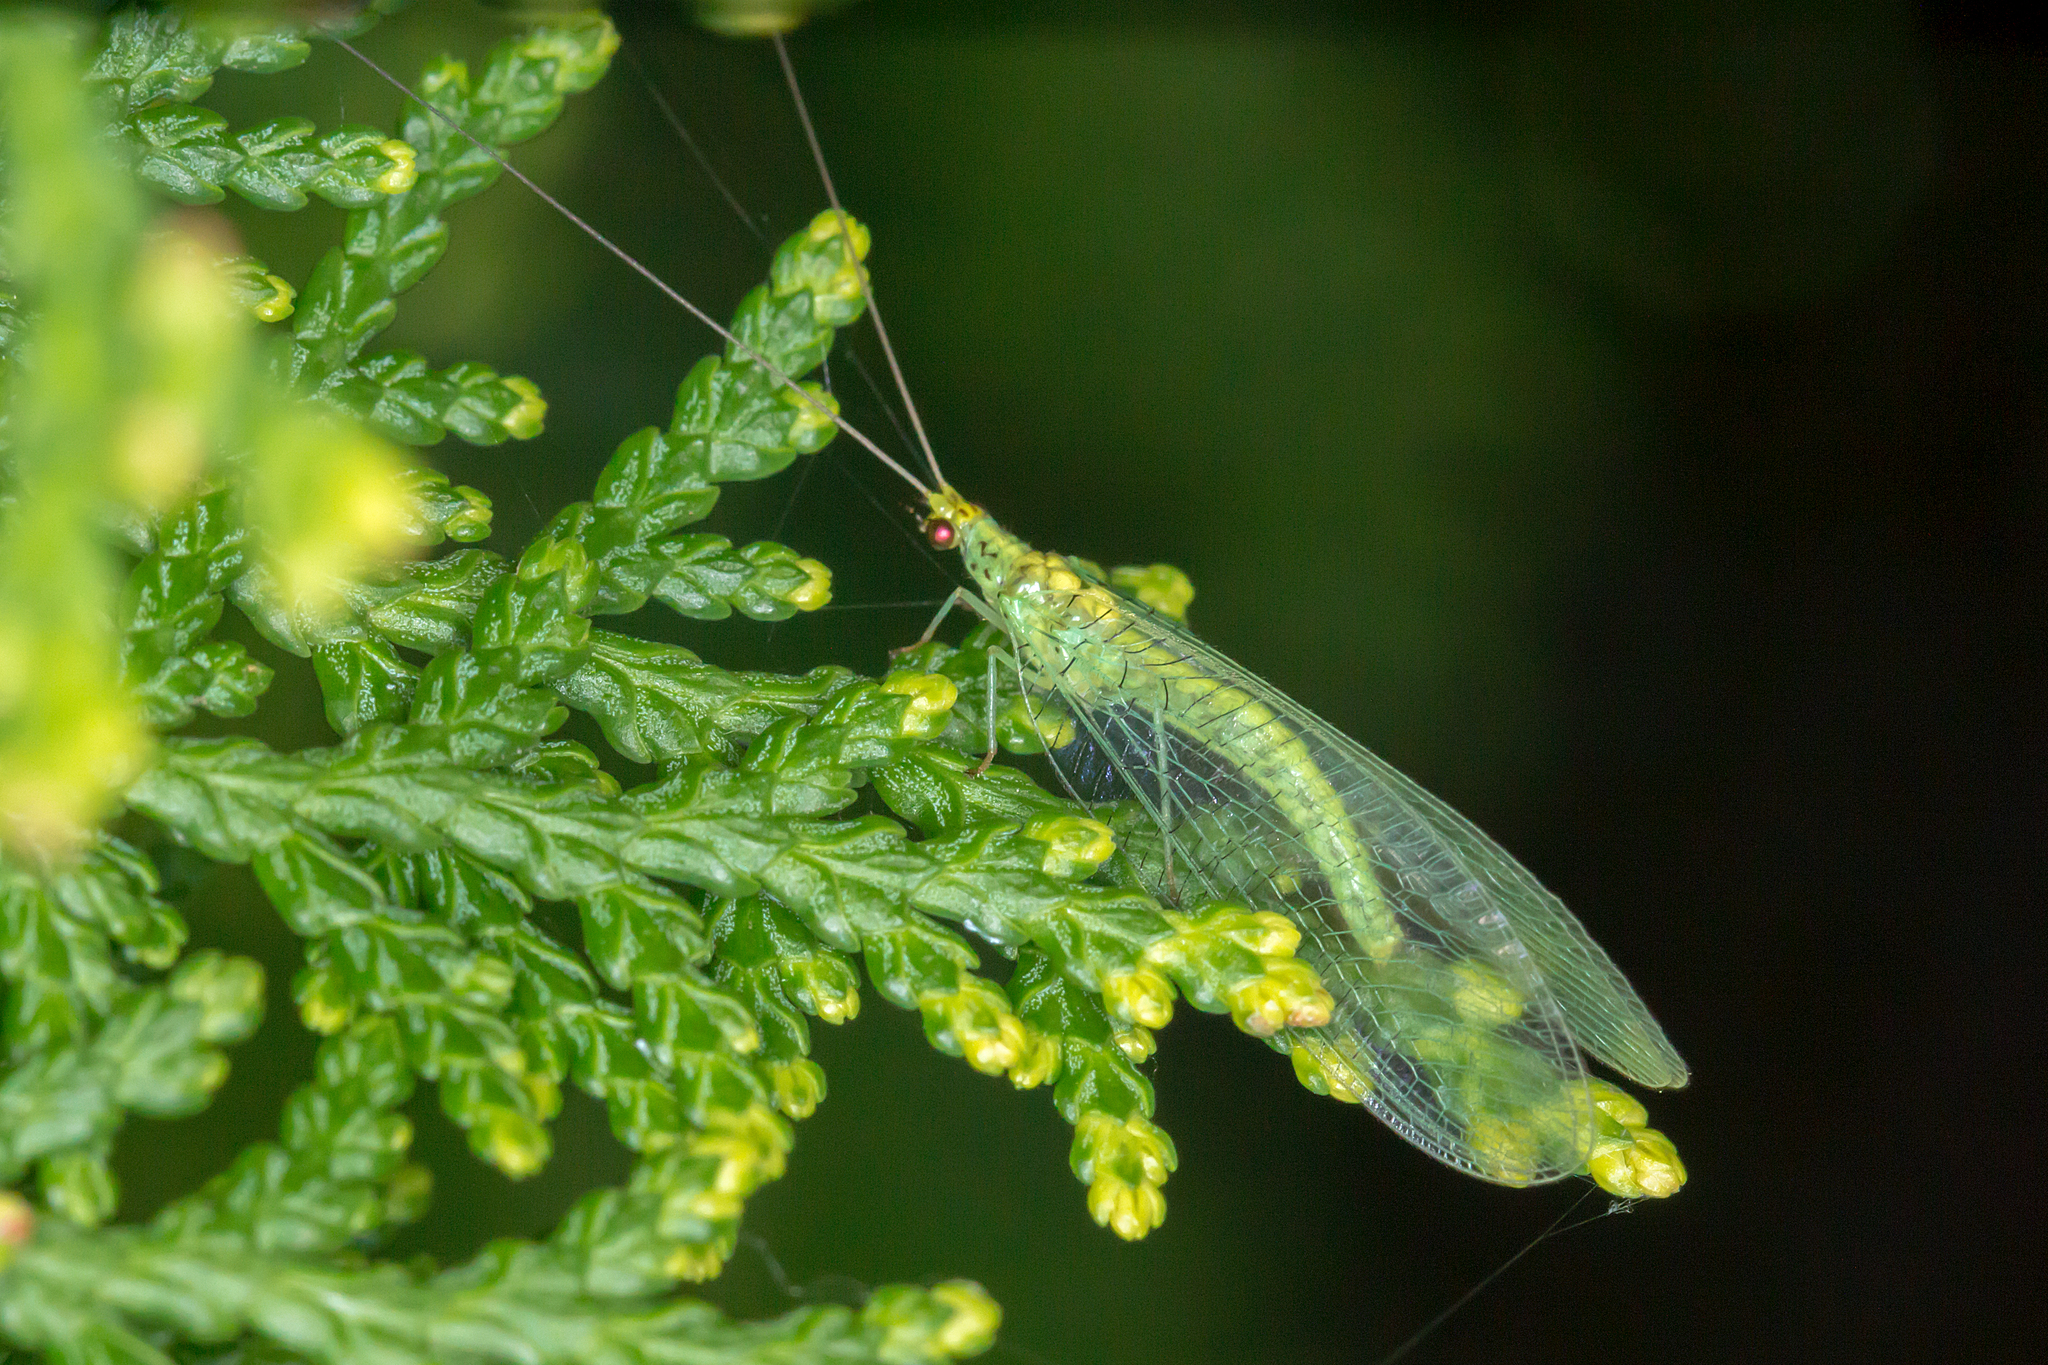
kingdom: Animalia
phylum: Arthropoda
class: Insecta
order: Neuroptera
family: Chrysopidae
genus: Pseudomallada
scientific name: Pseudomallada edwardsi
